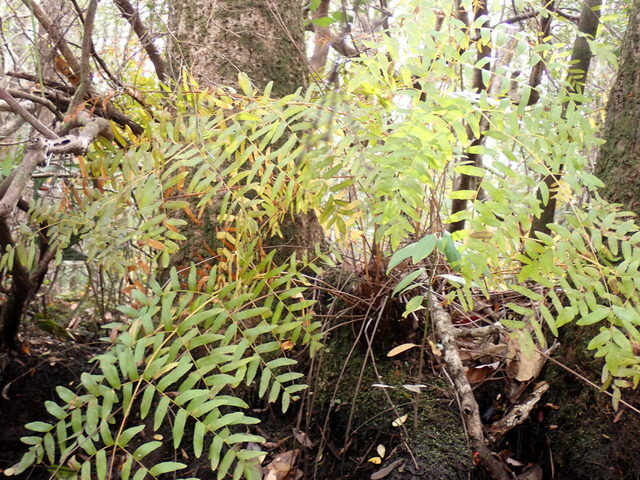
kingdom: Plantae
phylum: Tracheophyta
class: Polypodiopsida
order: Osmundales
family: Osmundaceae
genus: Osmunda
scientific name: Osmunda spectabilis
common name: American royal fern
